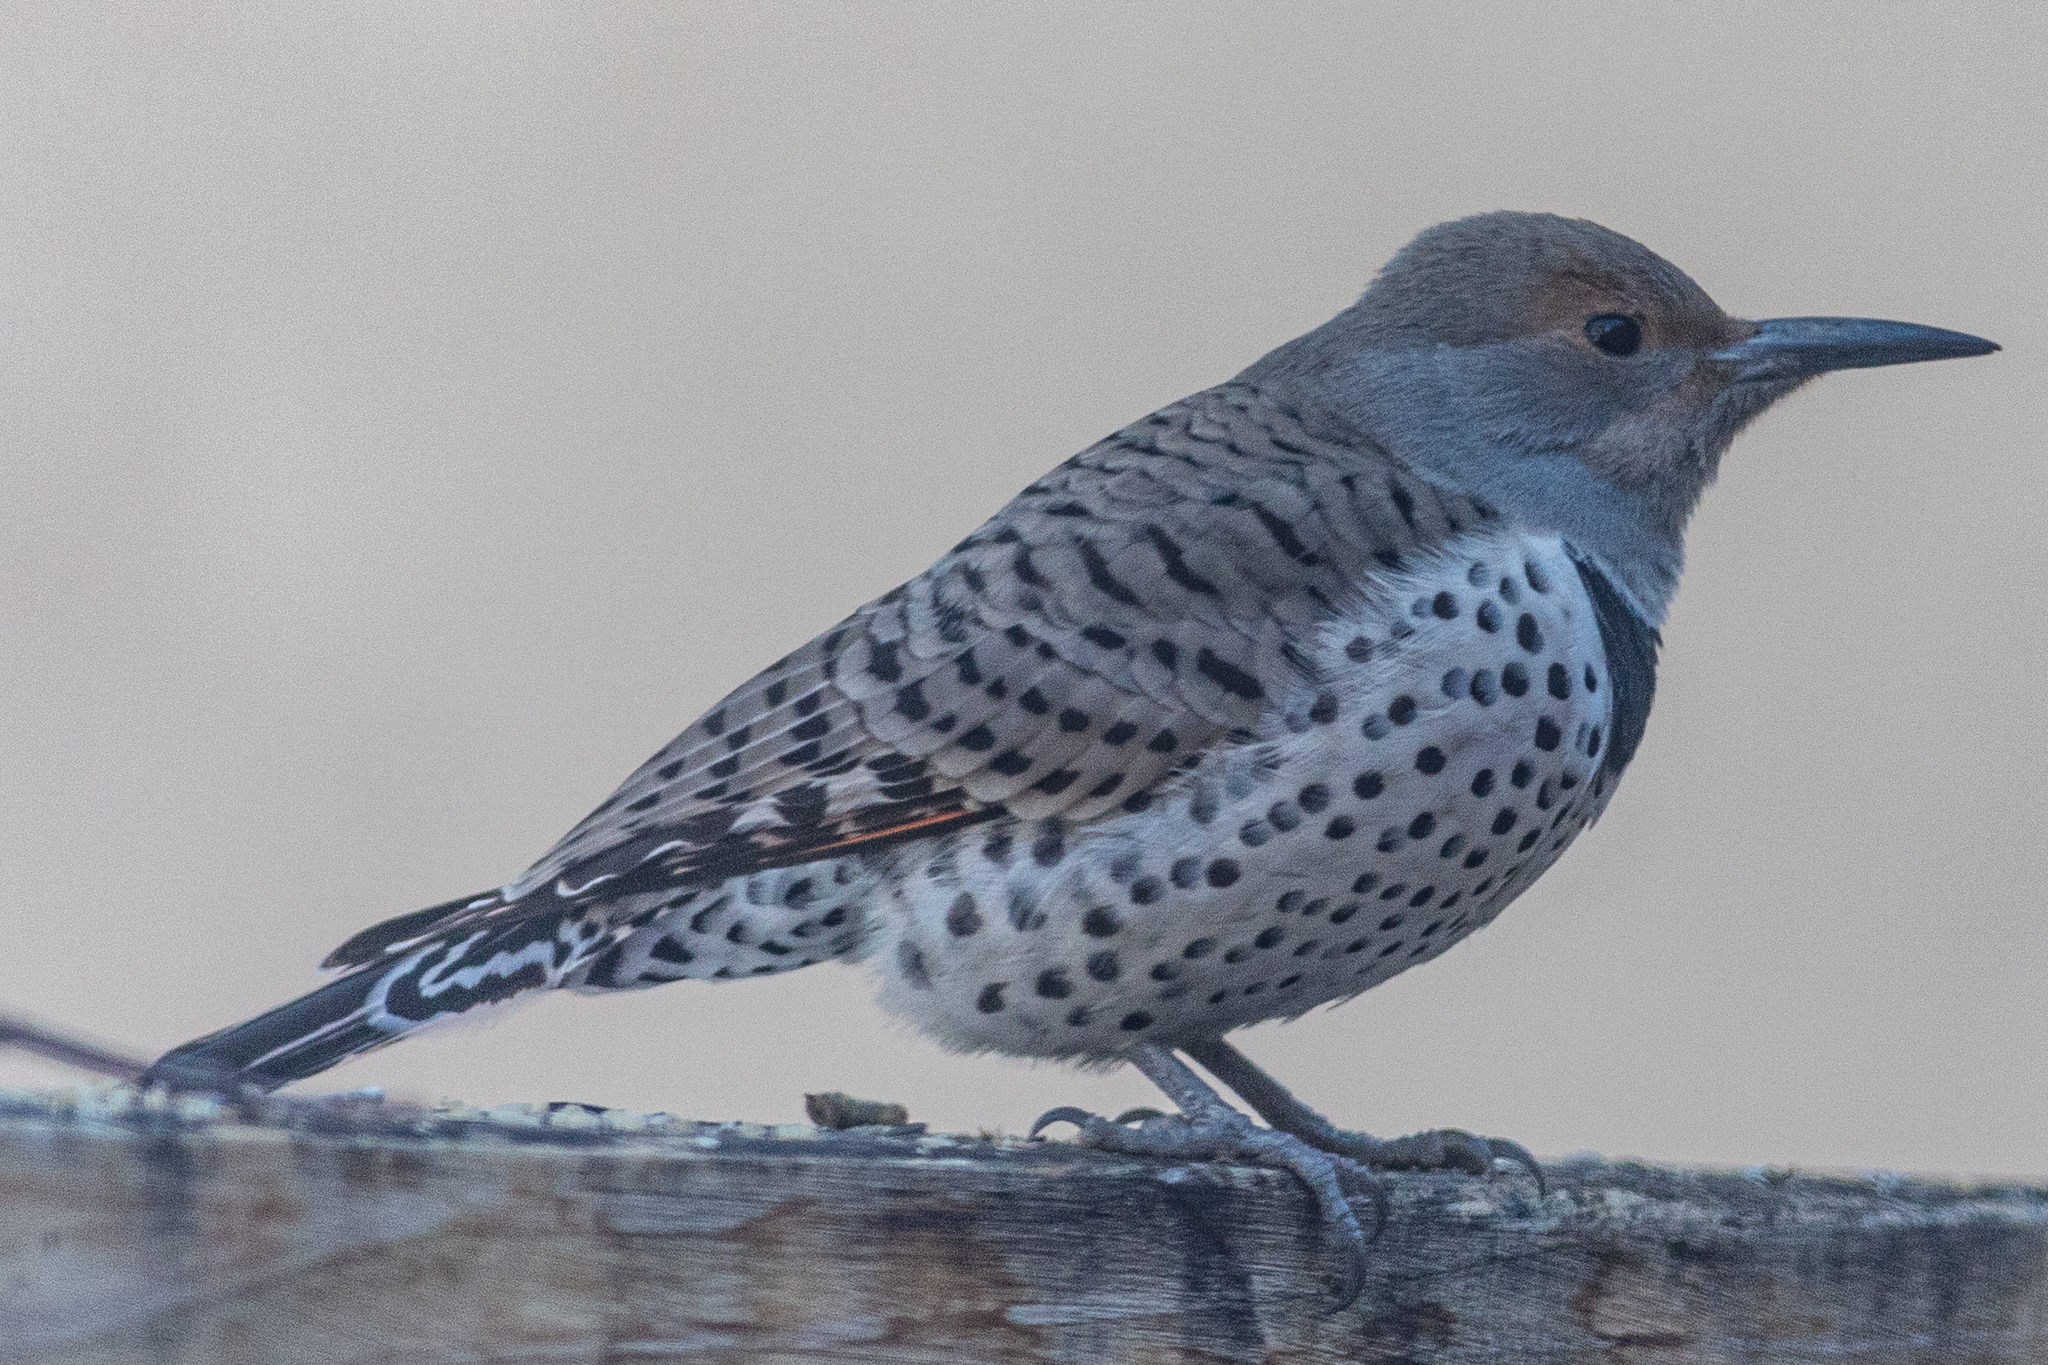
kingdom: Animalia
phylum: Chordata
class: Aves
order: Piciformes
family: Picidae
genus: Colaptes
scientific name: Colaptes auratus
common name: Northern flicker
